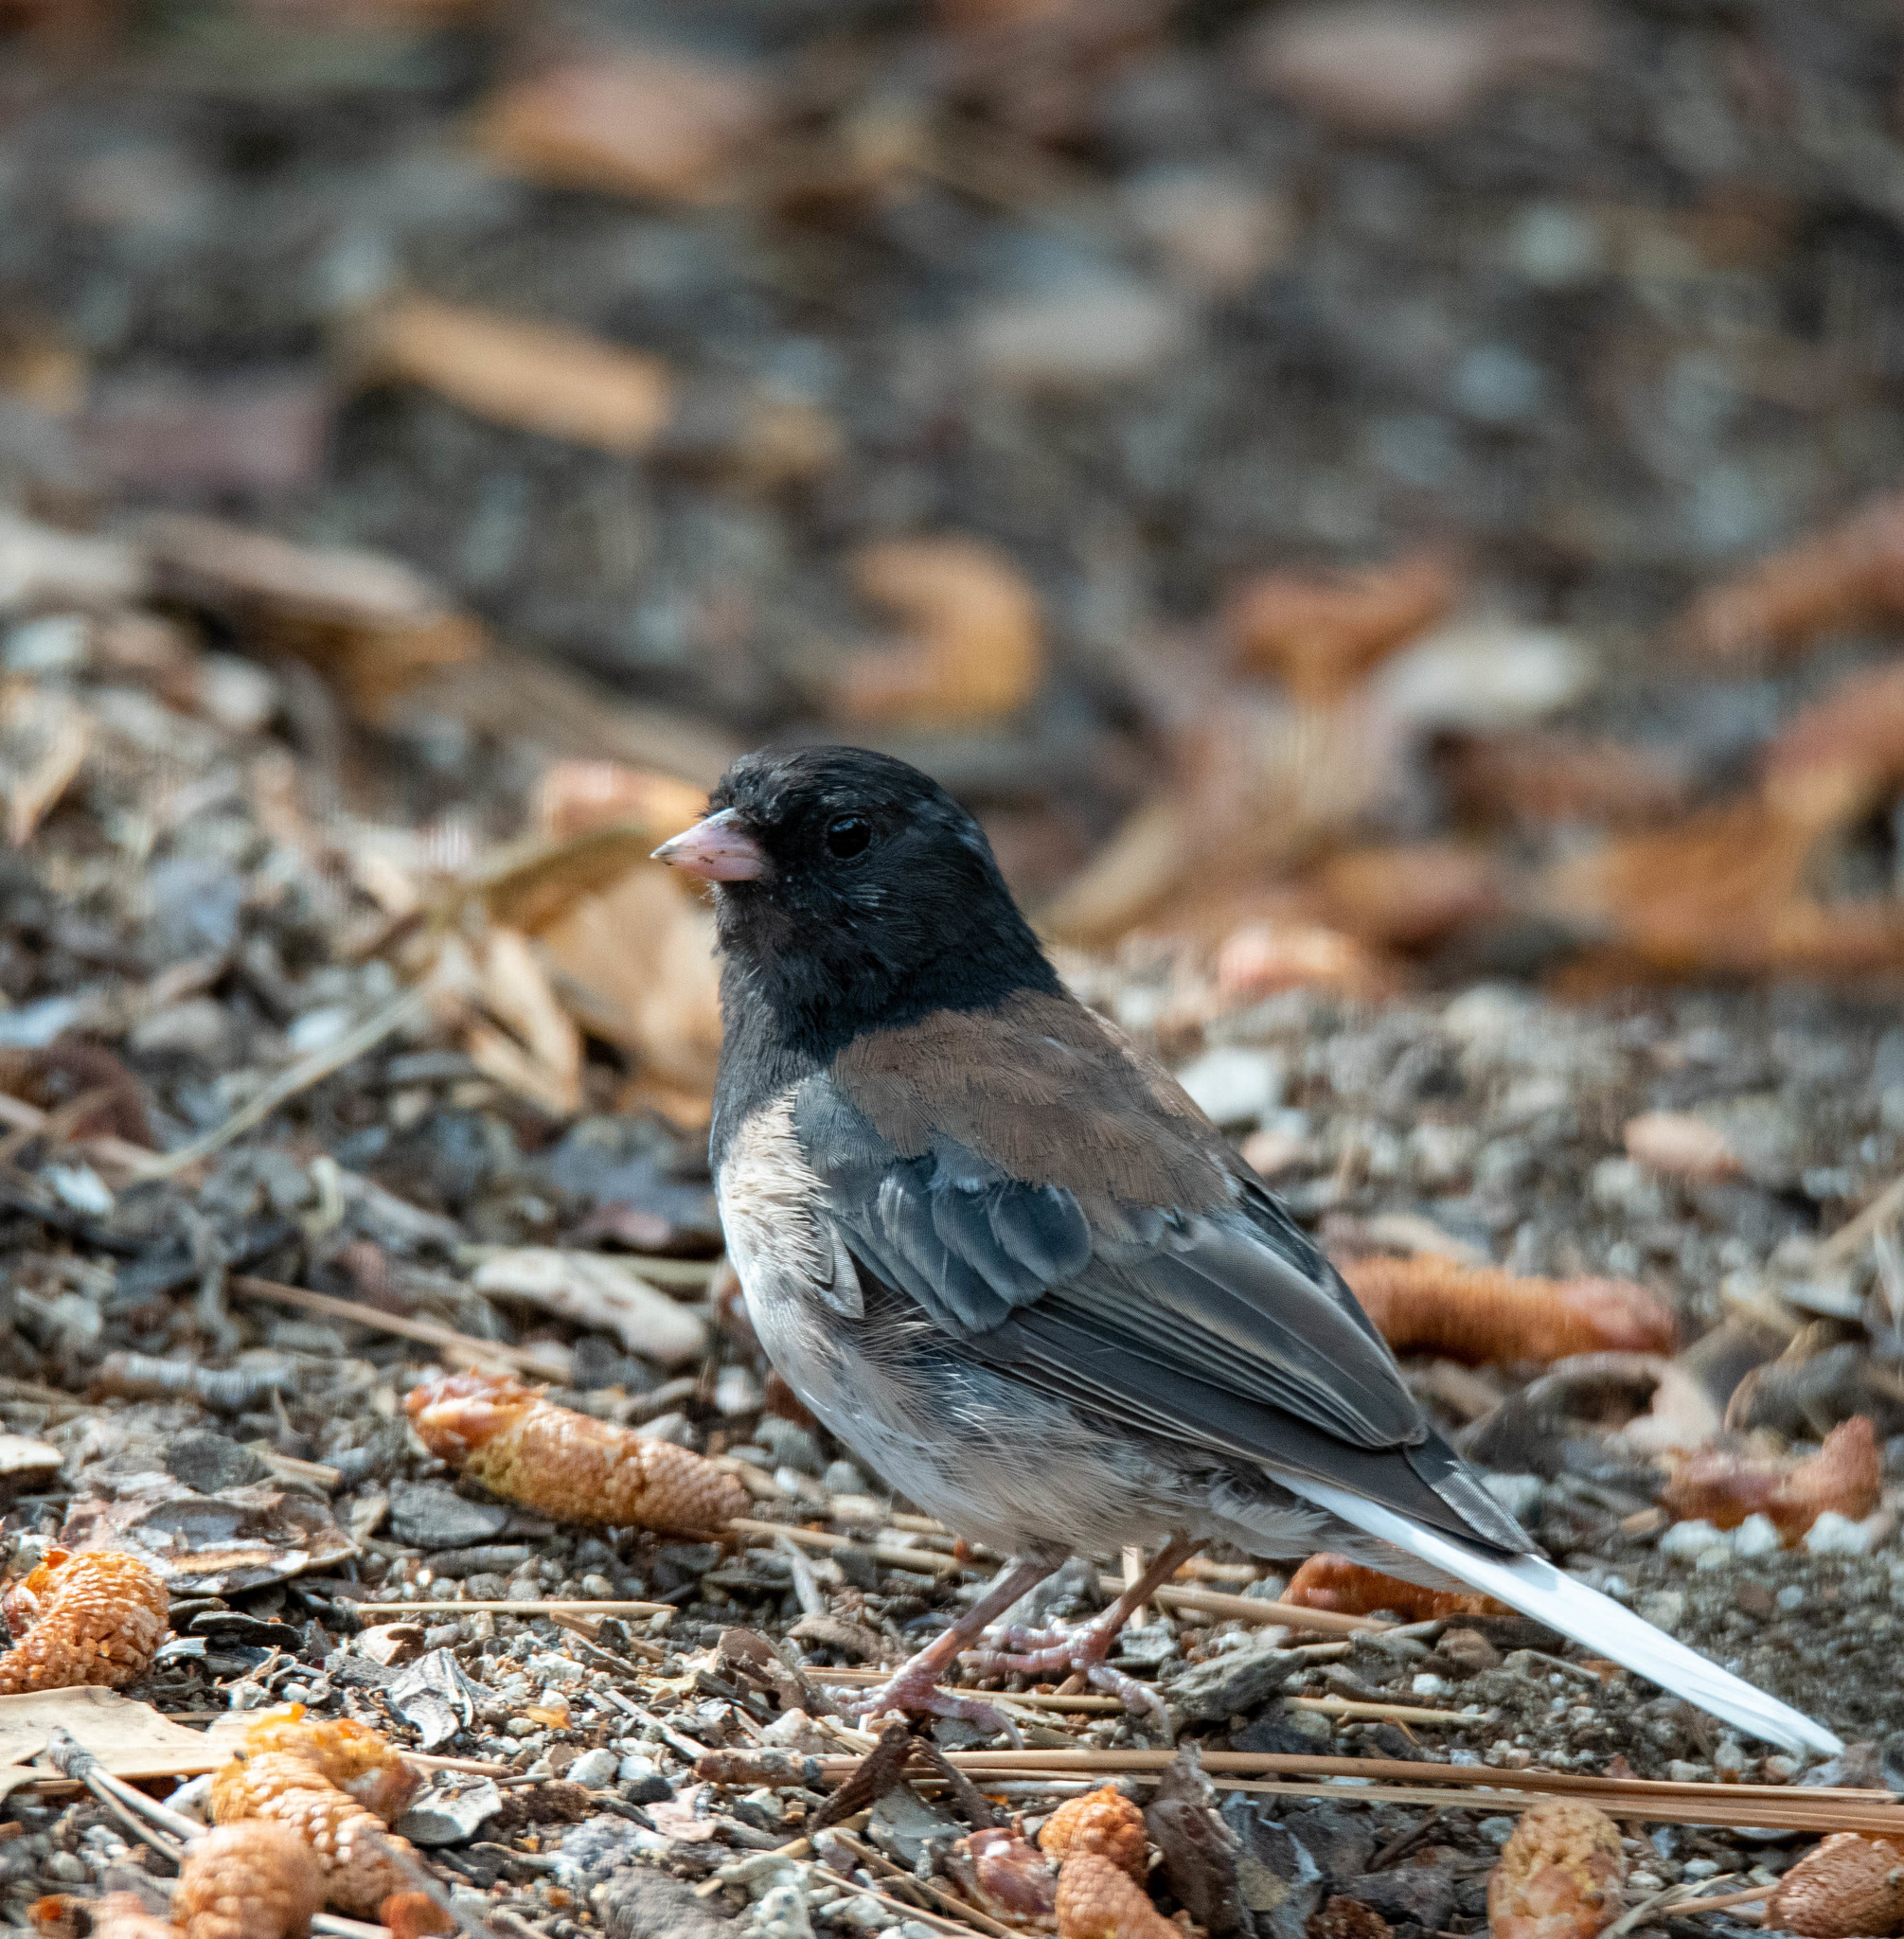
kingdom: Animalia
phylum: Chordata
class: Aves
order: Passeriformes
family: Passerellidae
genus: Junco
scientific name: Junco hyemalis
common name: Dark-eyed junco
